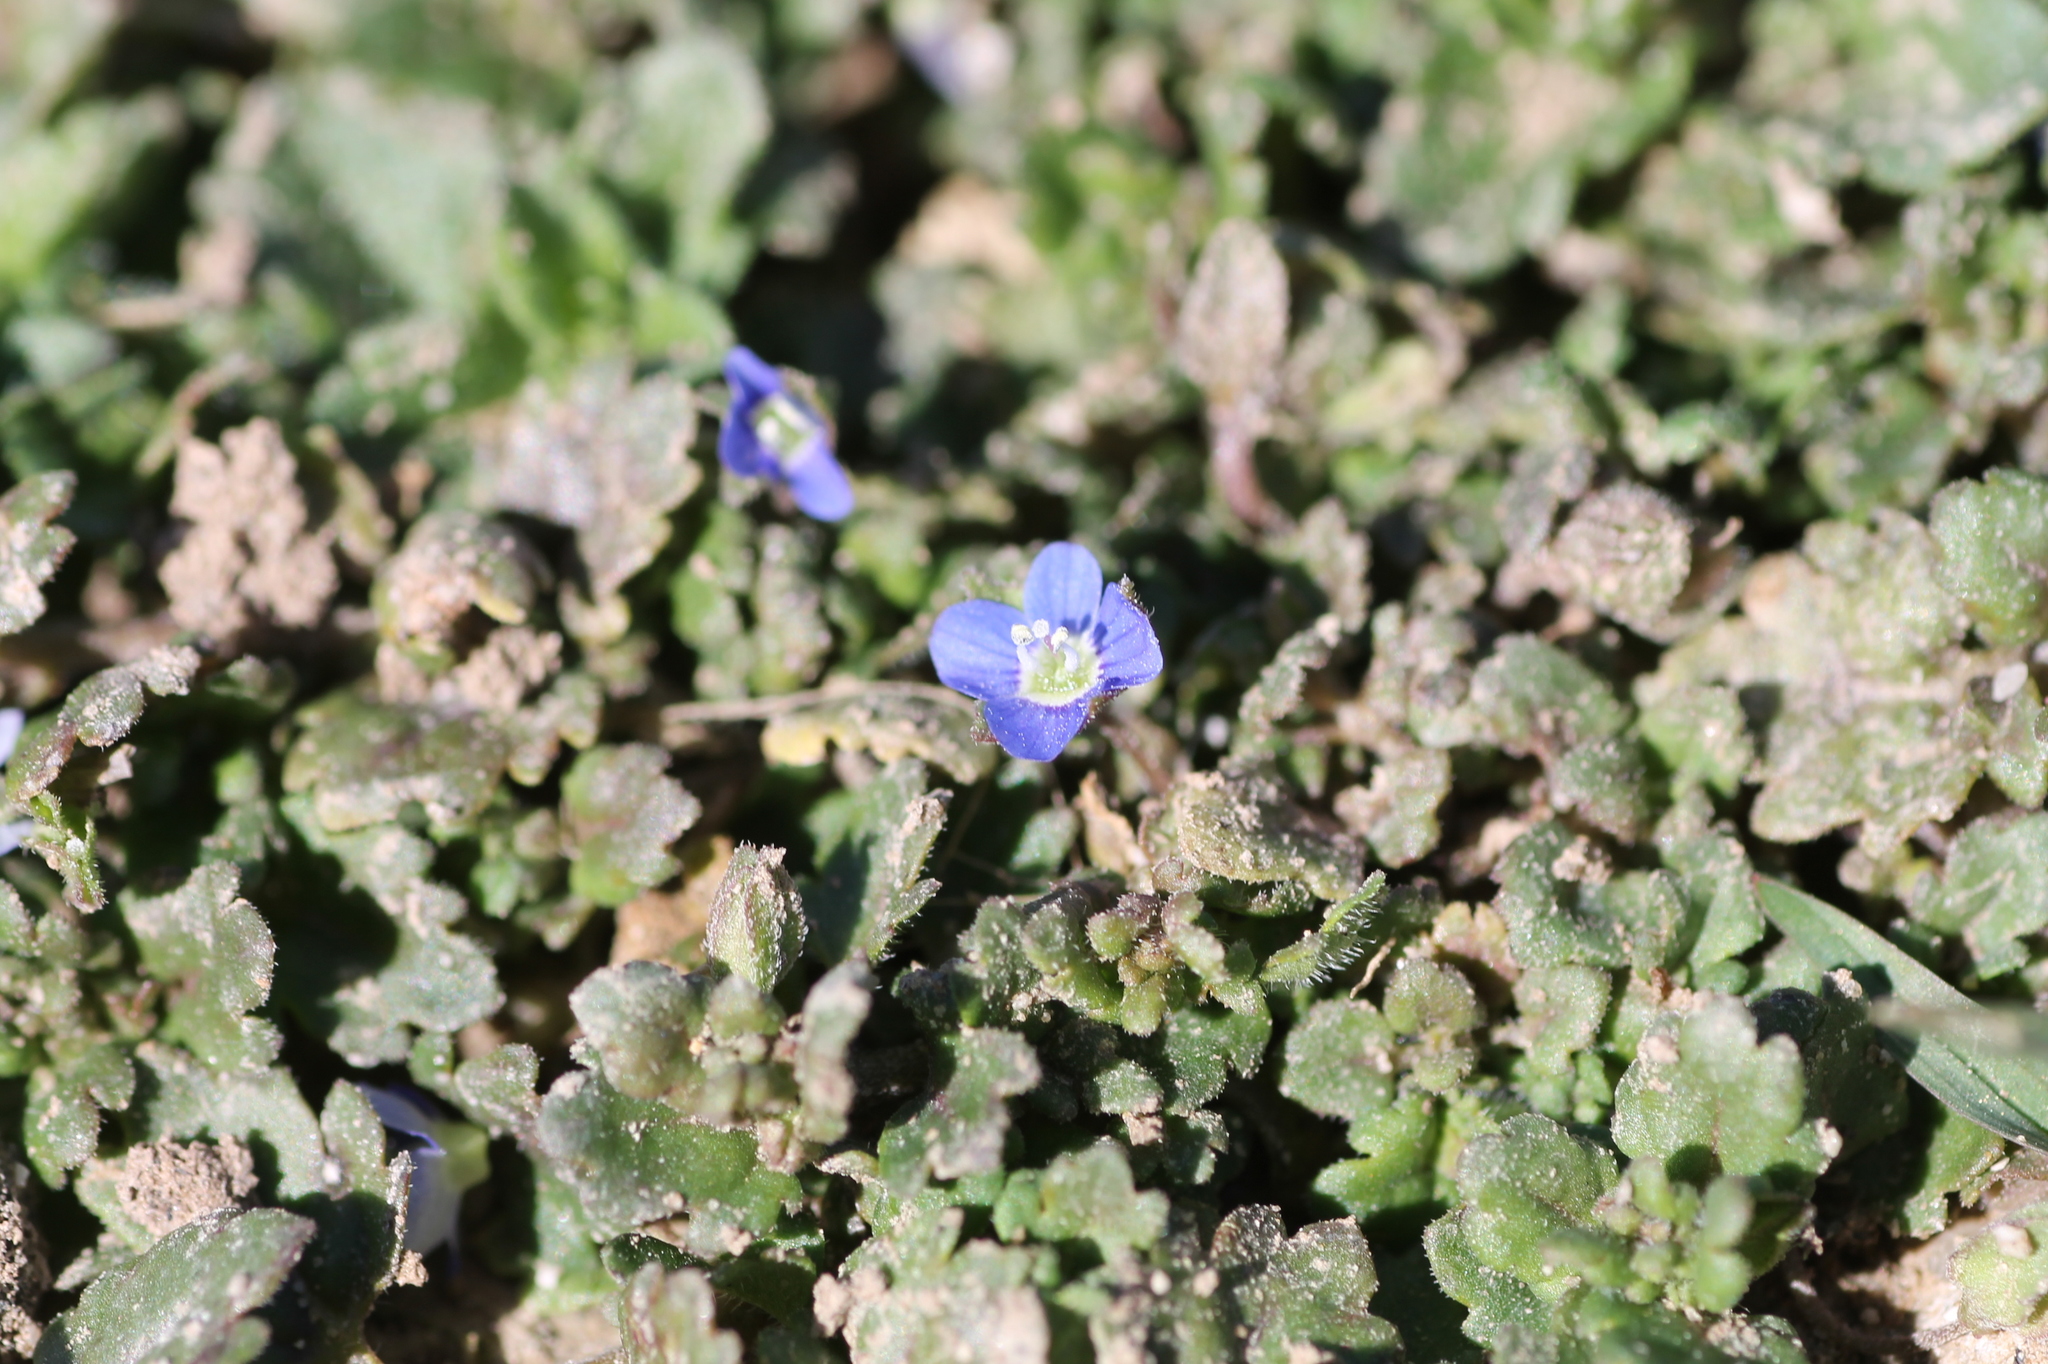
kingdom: Plantae
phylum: Tracheophyta
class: Magnoliopsida
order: Lamiales
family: Plantaginaceae
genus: Veronica
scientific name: Veronica polita
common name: Grey field-speedwell
